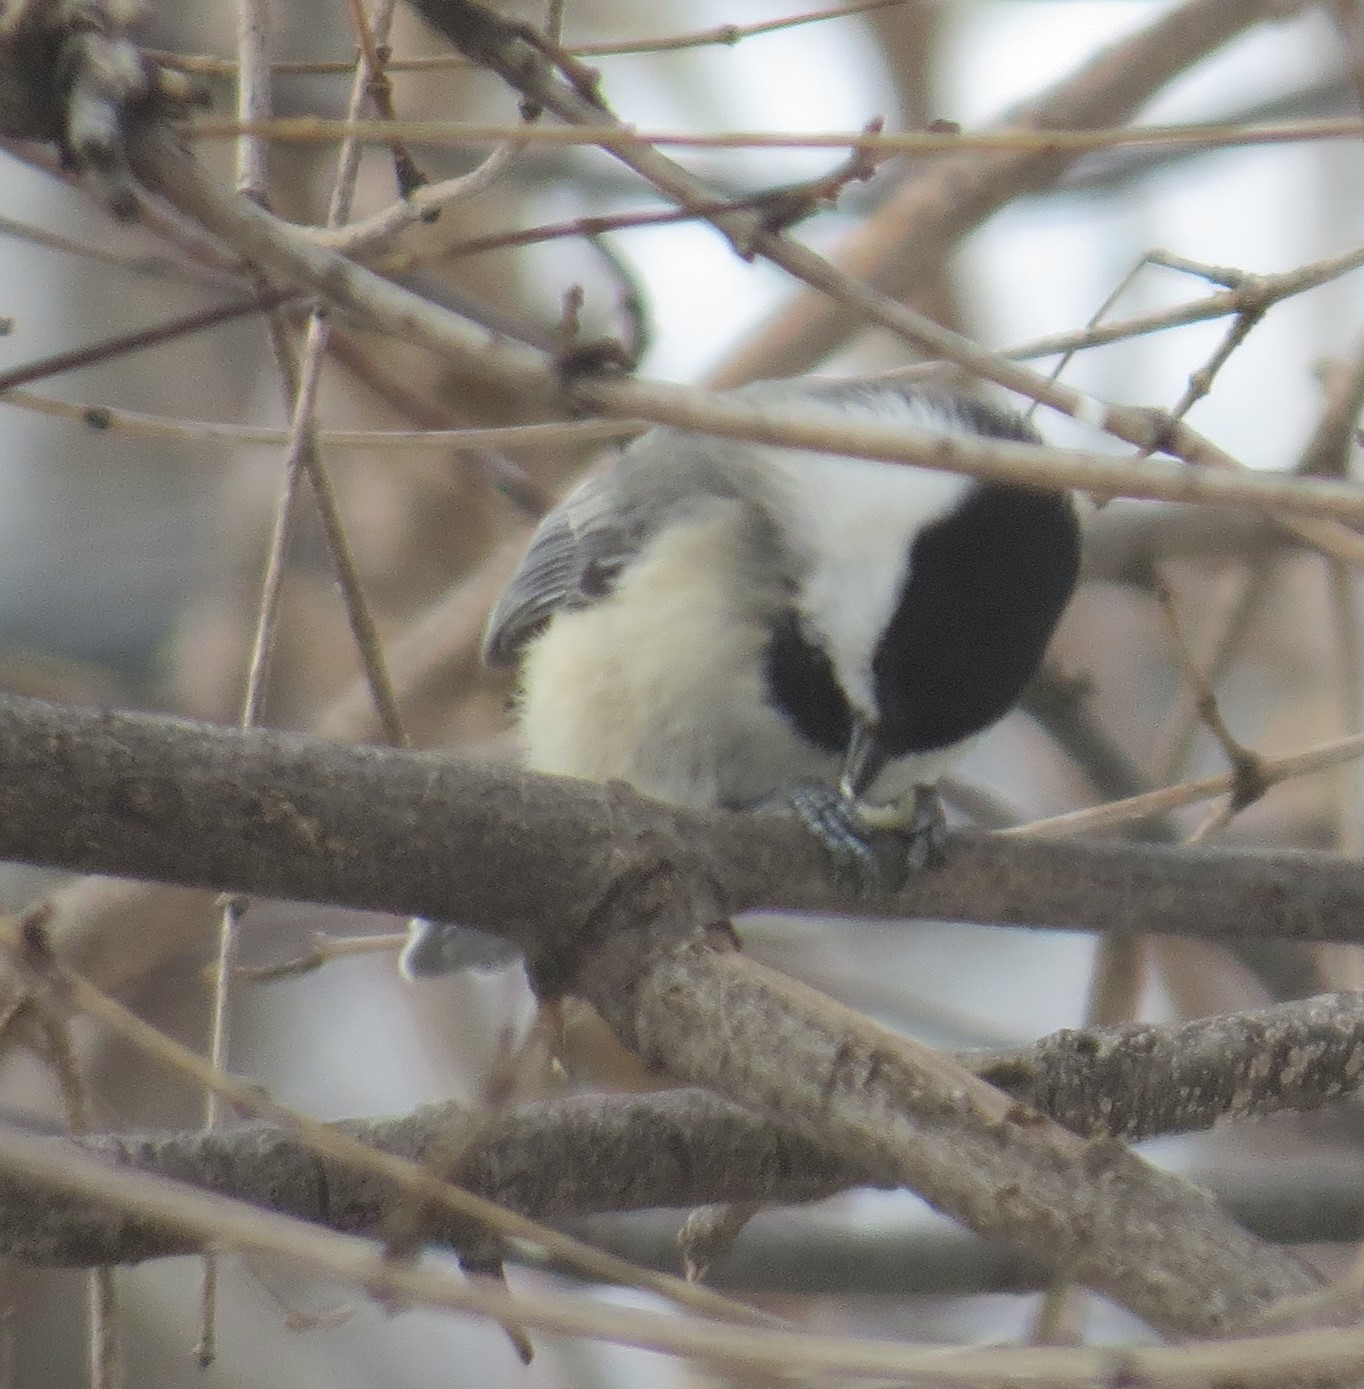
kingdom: Animalia
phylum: Chordata
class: Aves
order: Passeriformes
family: Paridae
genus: Poecile
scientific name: Poecile atricapillus
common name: Black-capped chickadee
